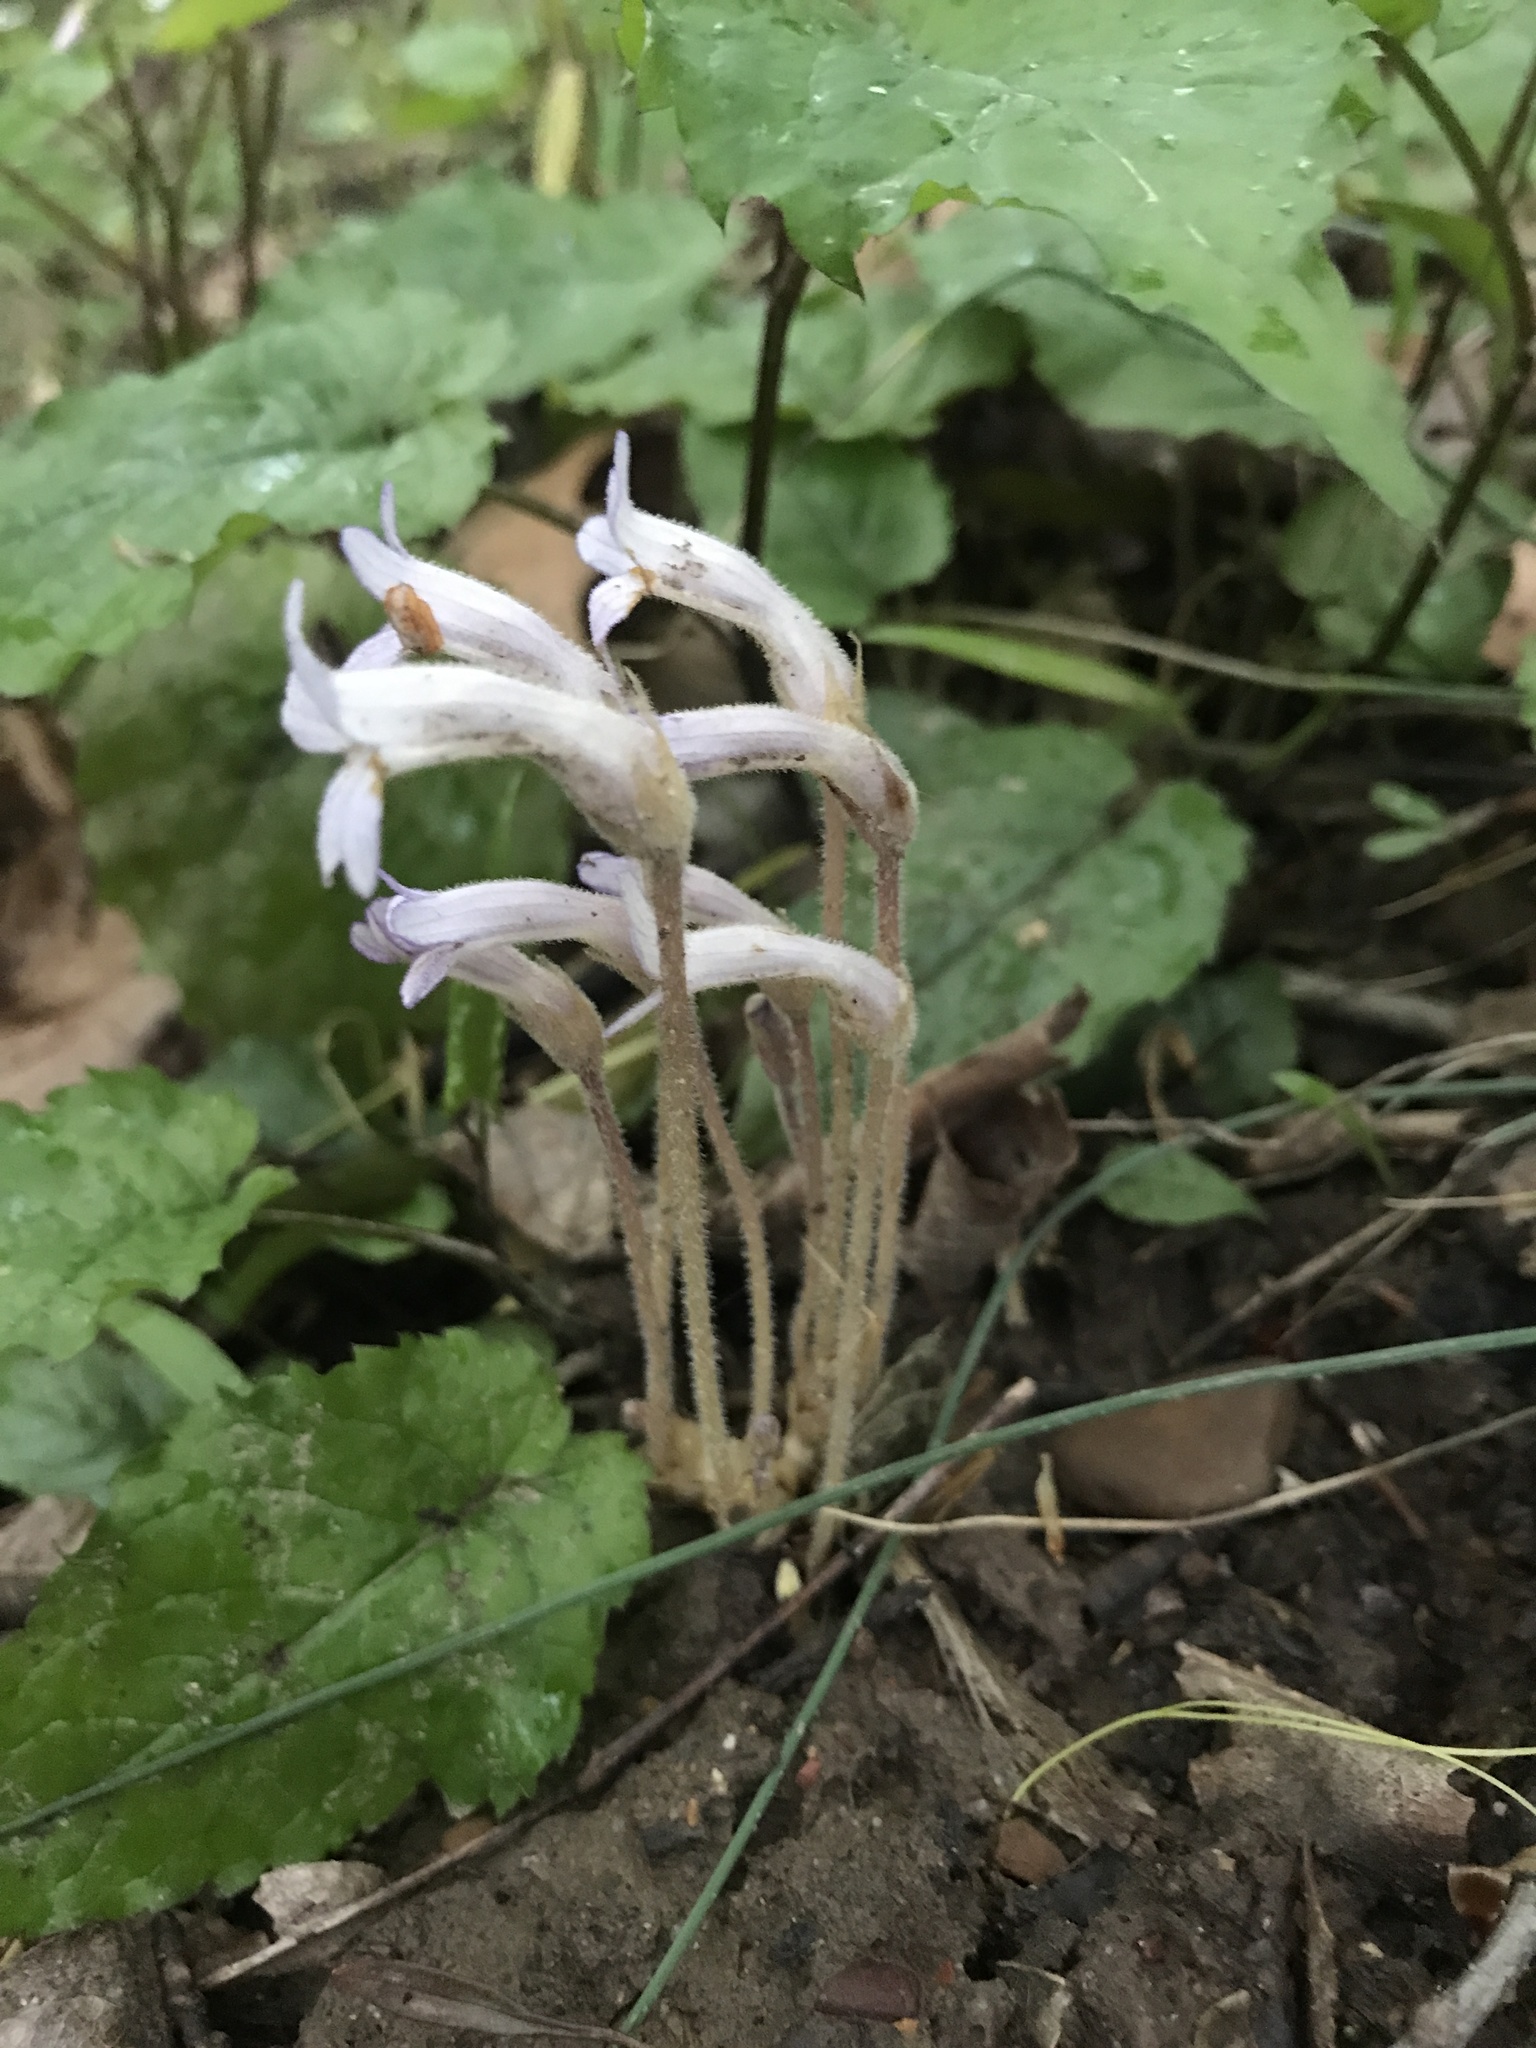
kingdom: Plantae
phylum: Tracheophyta
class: Magnoliopsida
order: Lamiales
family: Orobanchaceae
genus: Aphyllon
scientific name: Aphyllon uniflorum
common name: One-flowered broomrape
